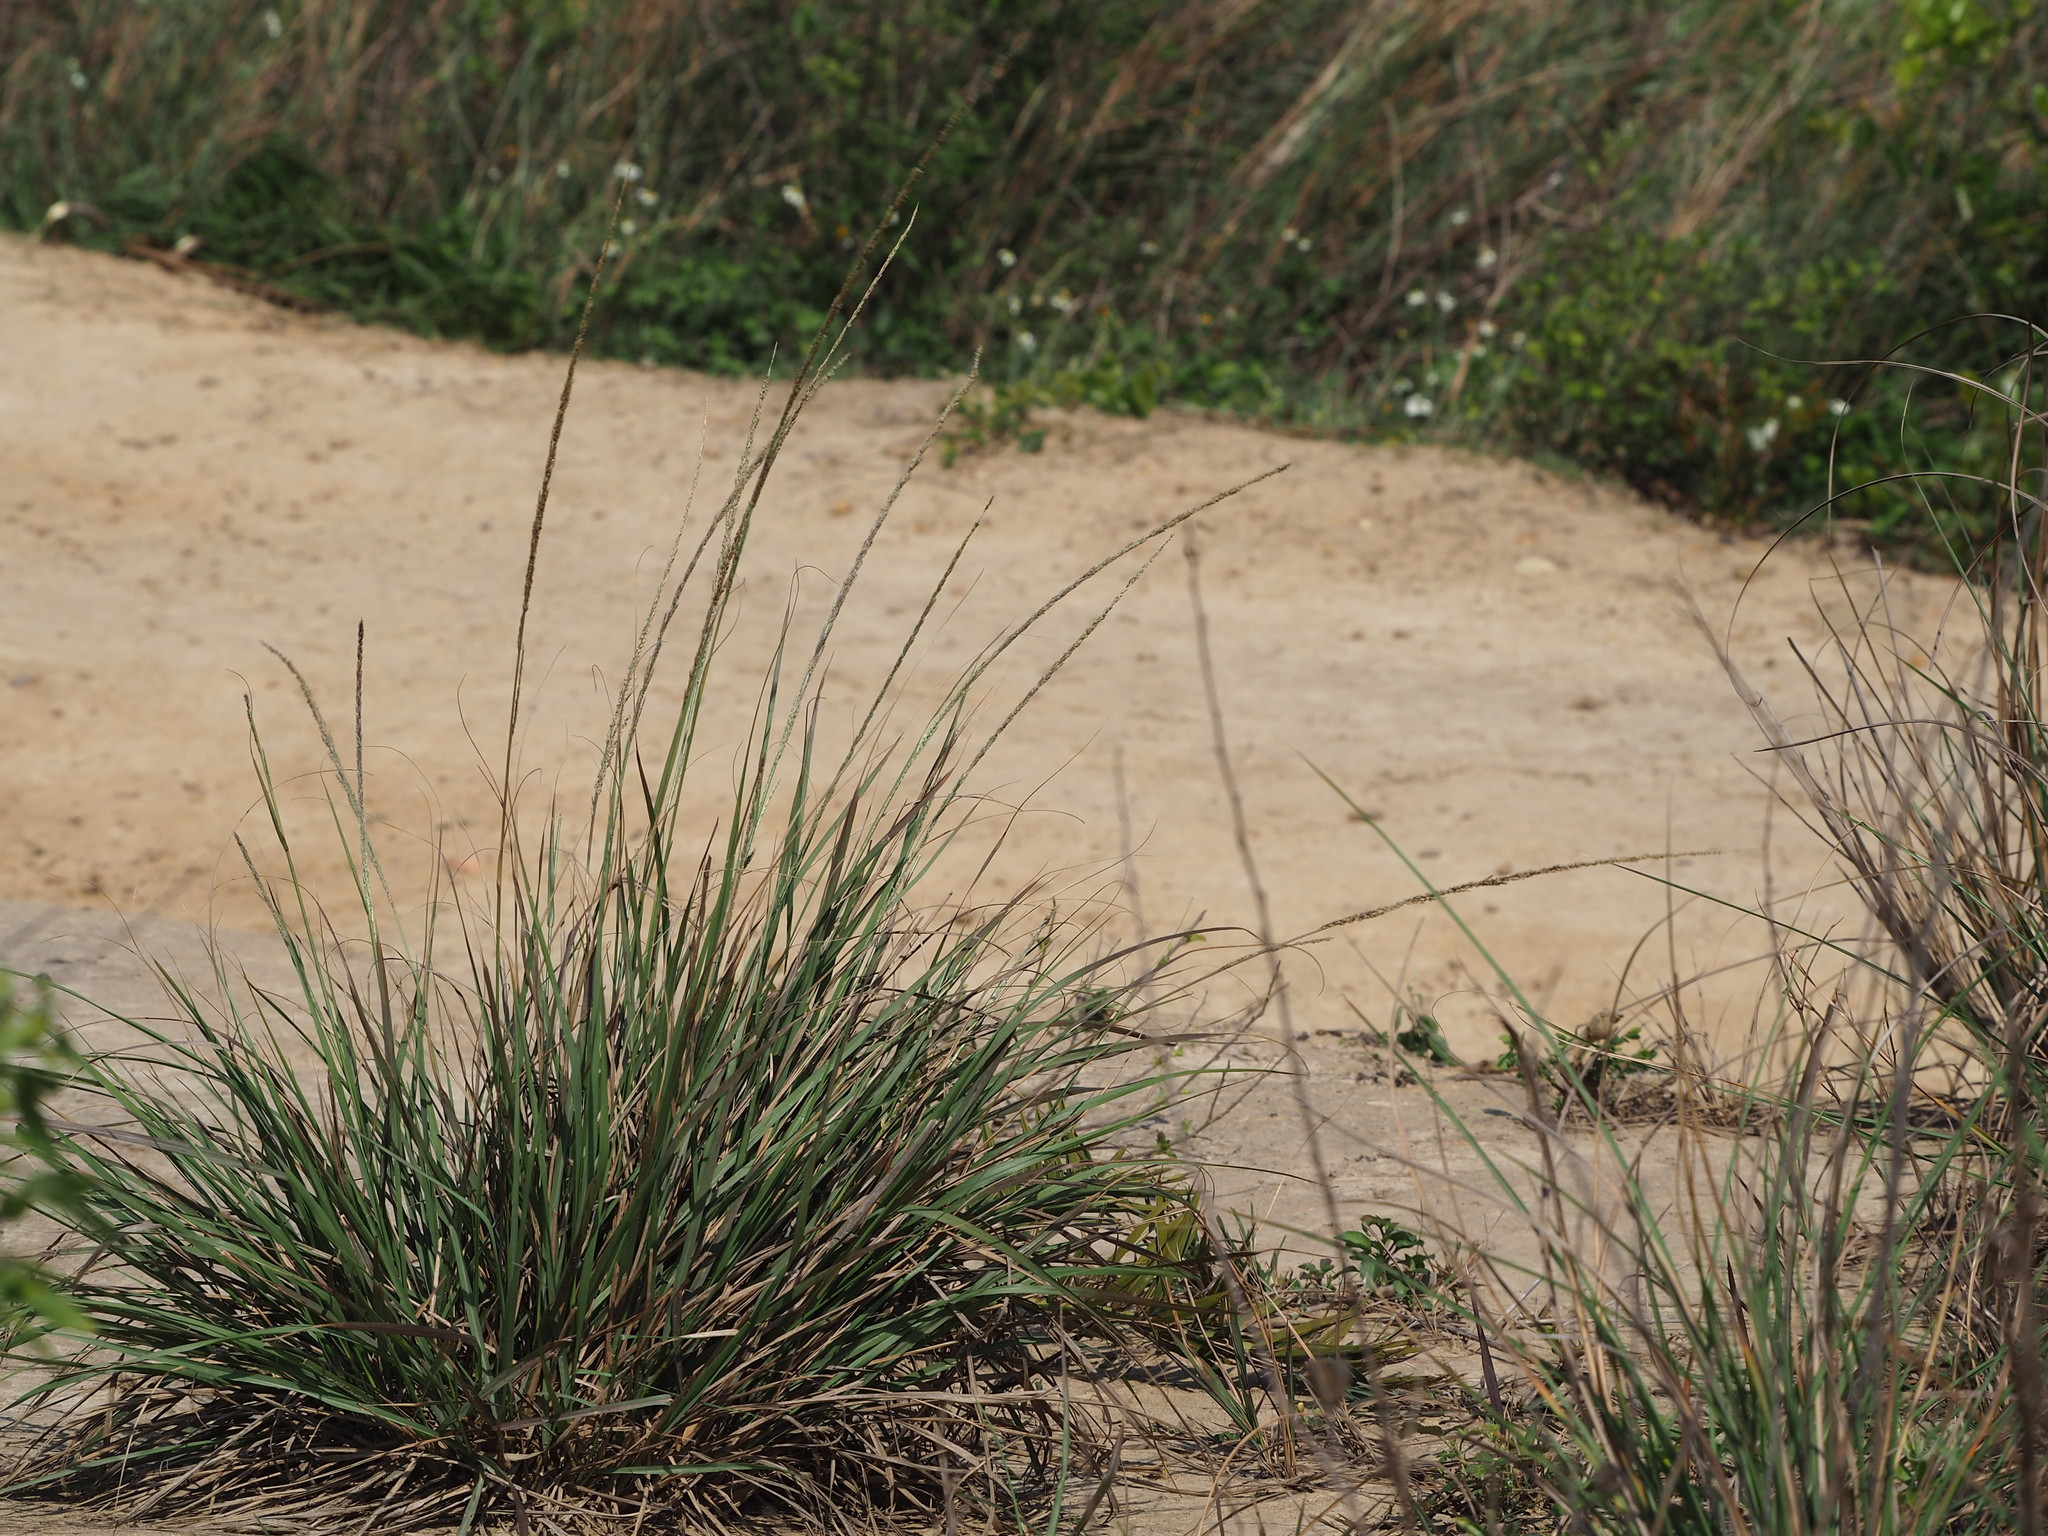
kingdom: Plantae
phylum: Tracheophyta
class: Liliopsida
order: Poales
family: Poaceae
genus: Sporobolus
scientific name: Sporobolus indicus
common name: Smut grass
